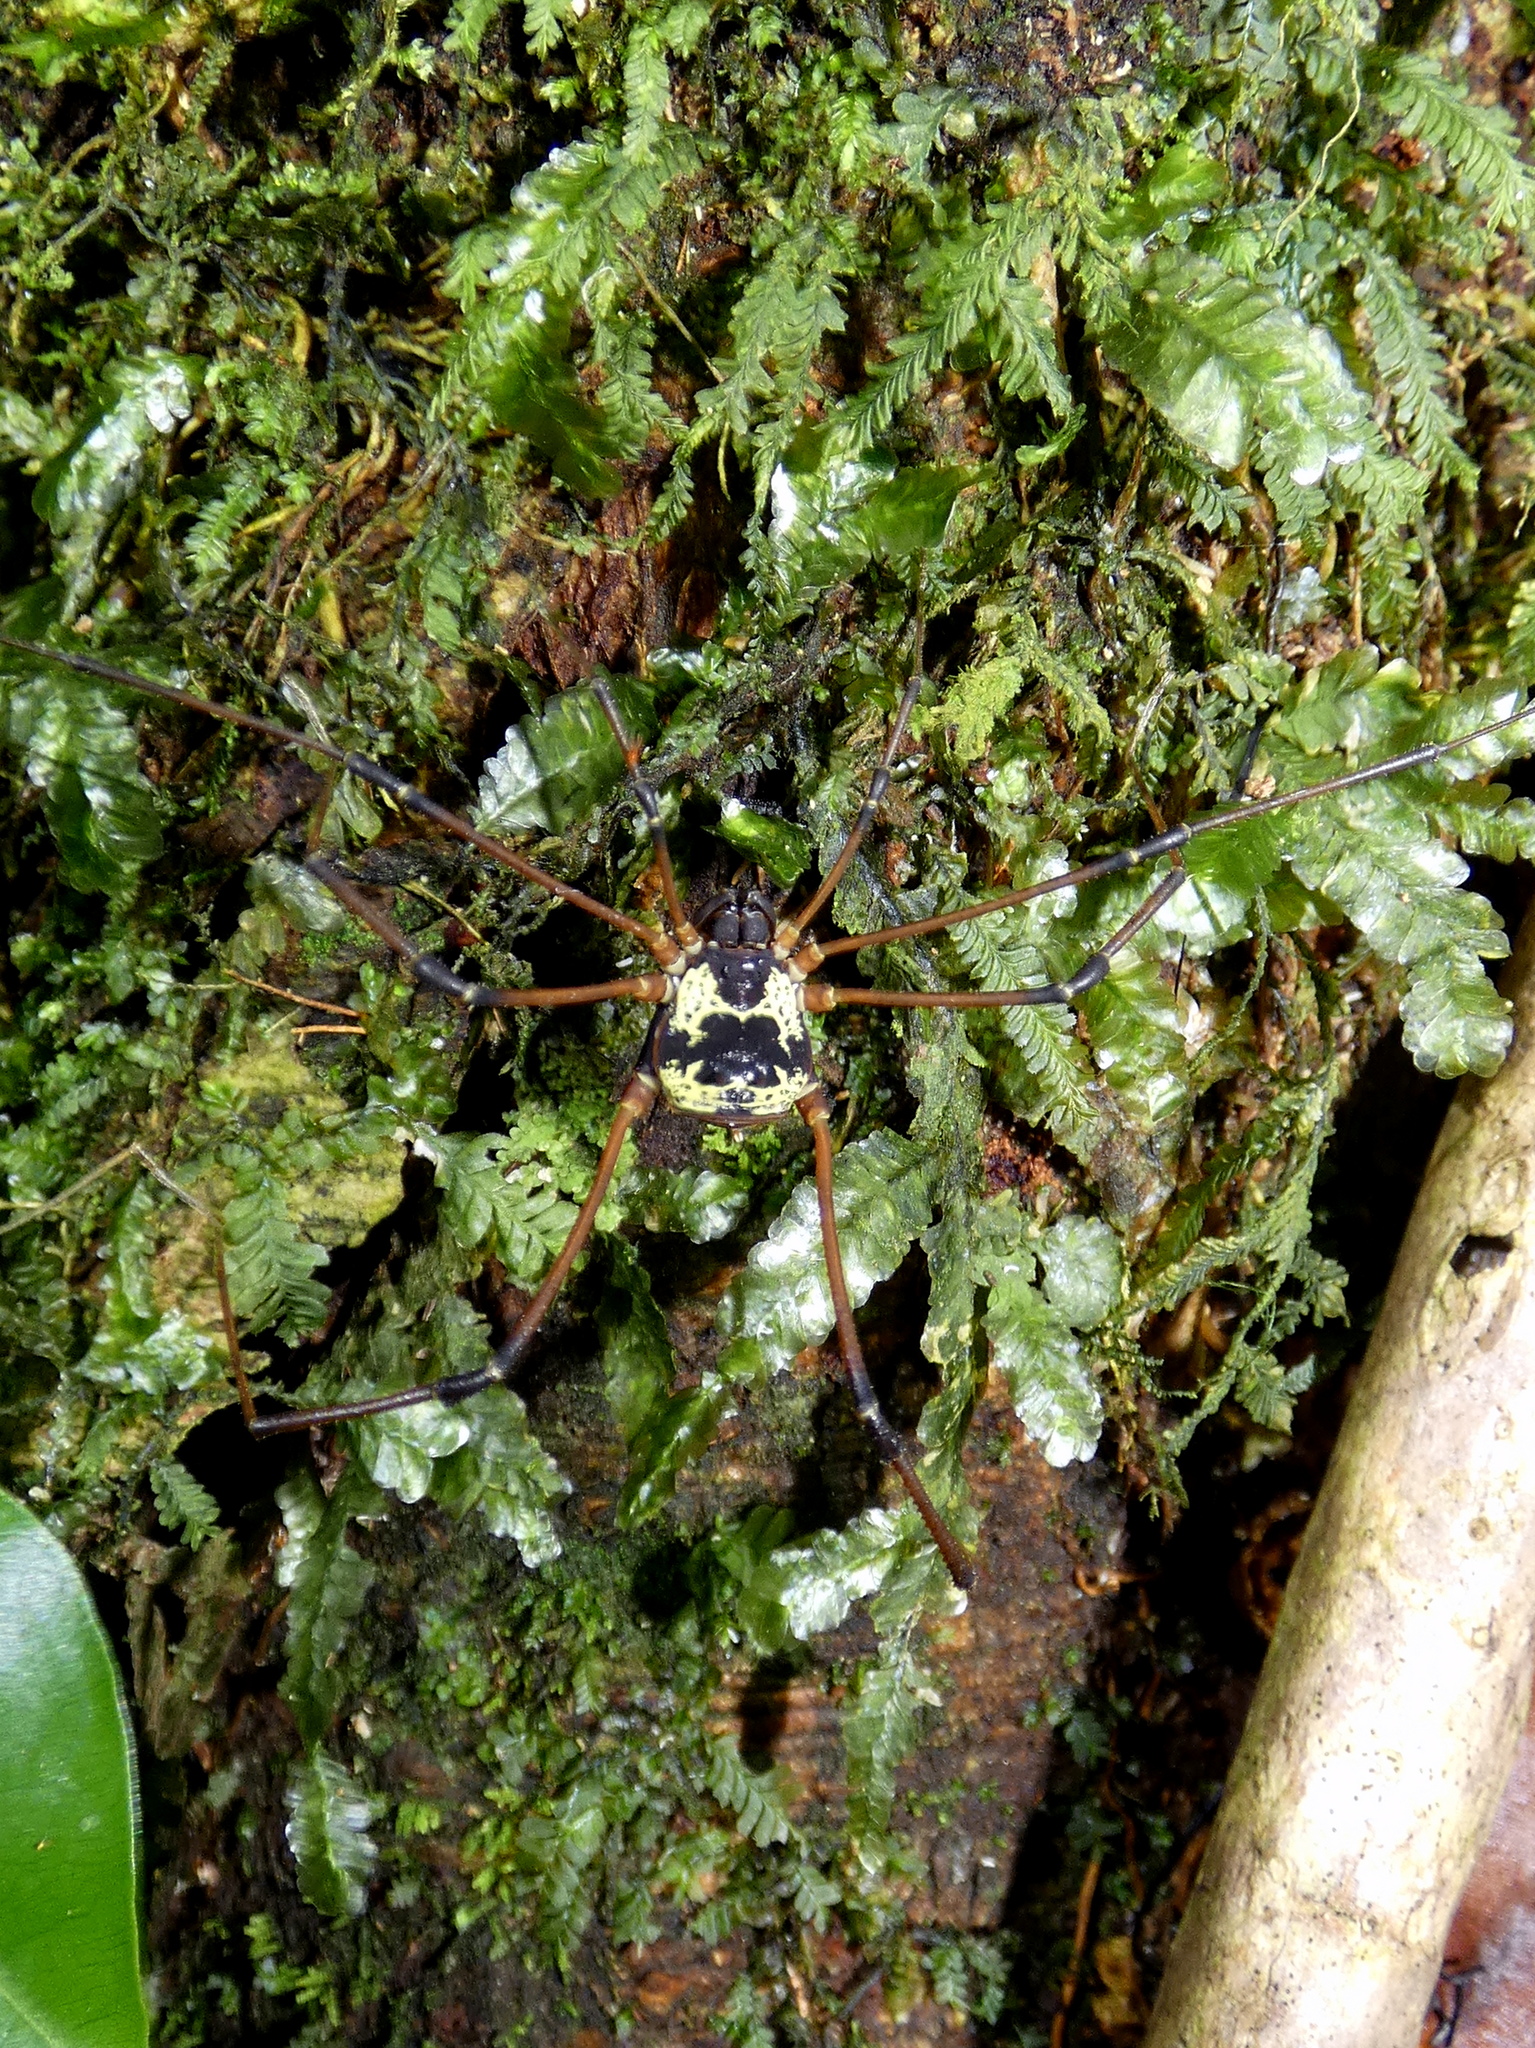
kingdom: Animalia
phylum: Arthropoda
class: Arachnida
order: Opiliones
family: Cosmetidae
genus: Cynorta
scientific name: Cynorta casita
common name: Harvestmen
